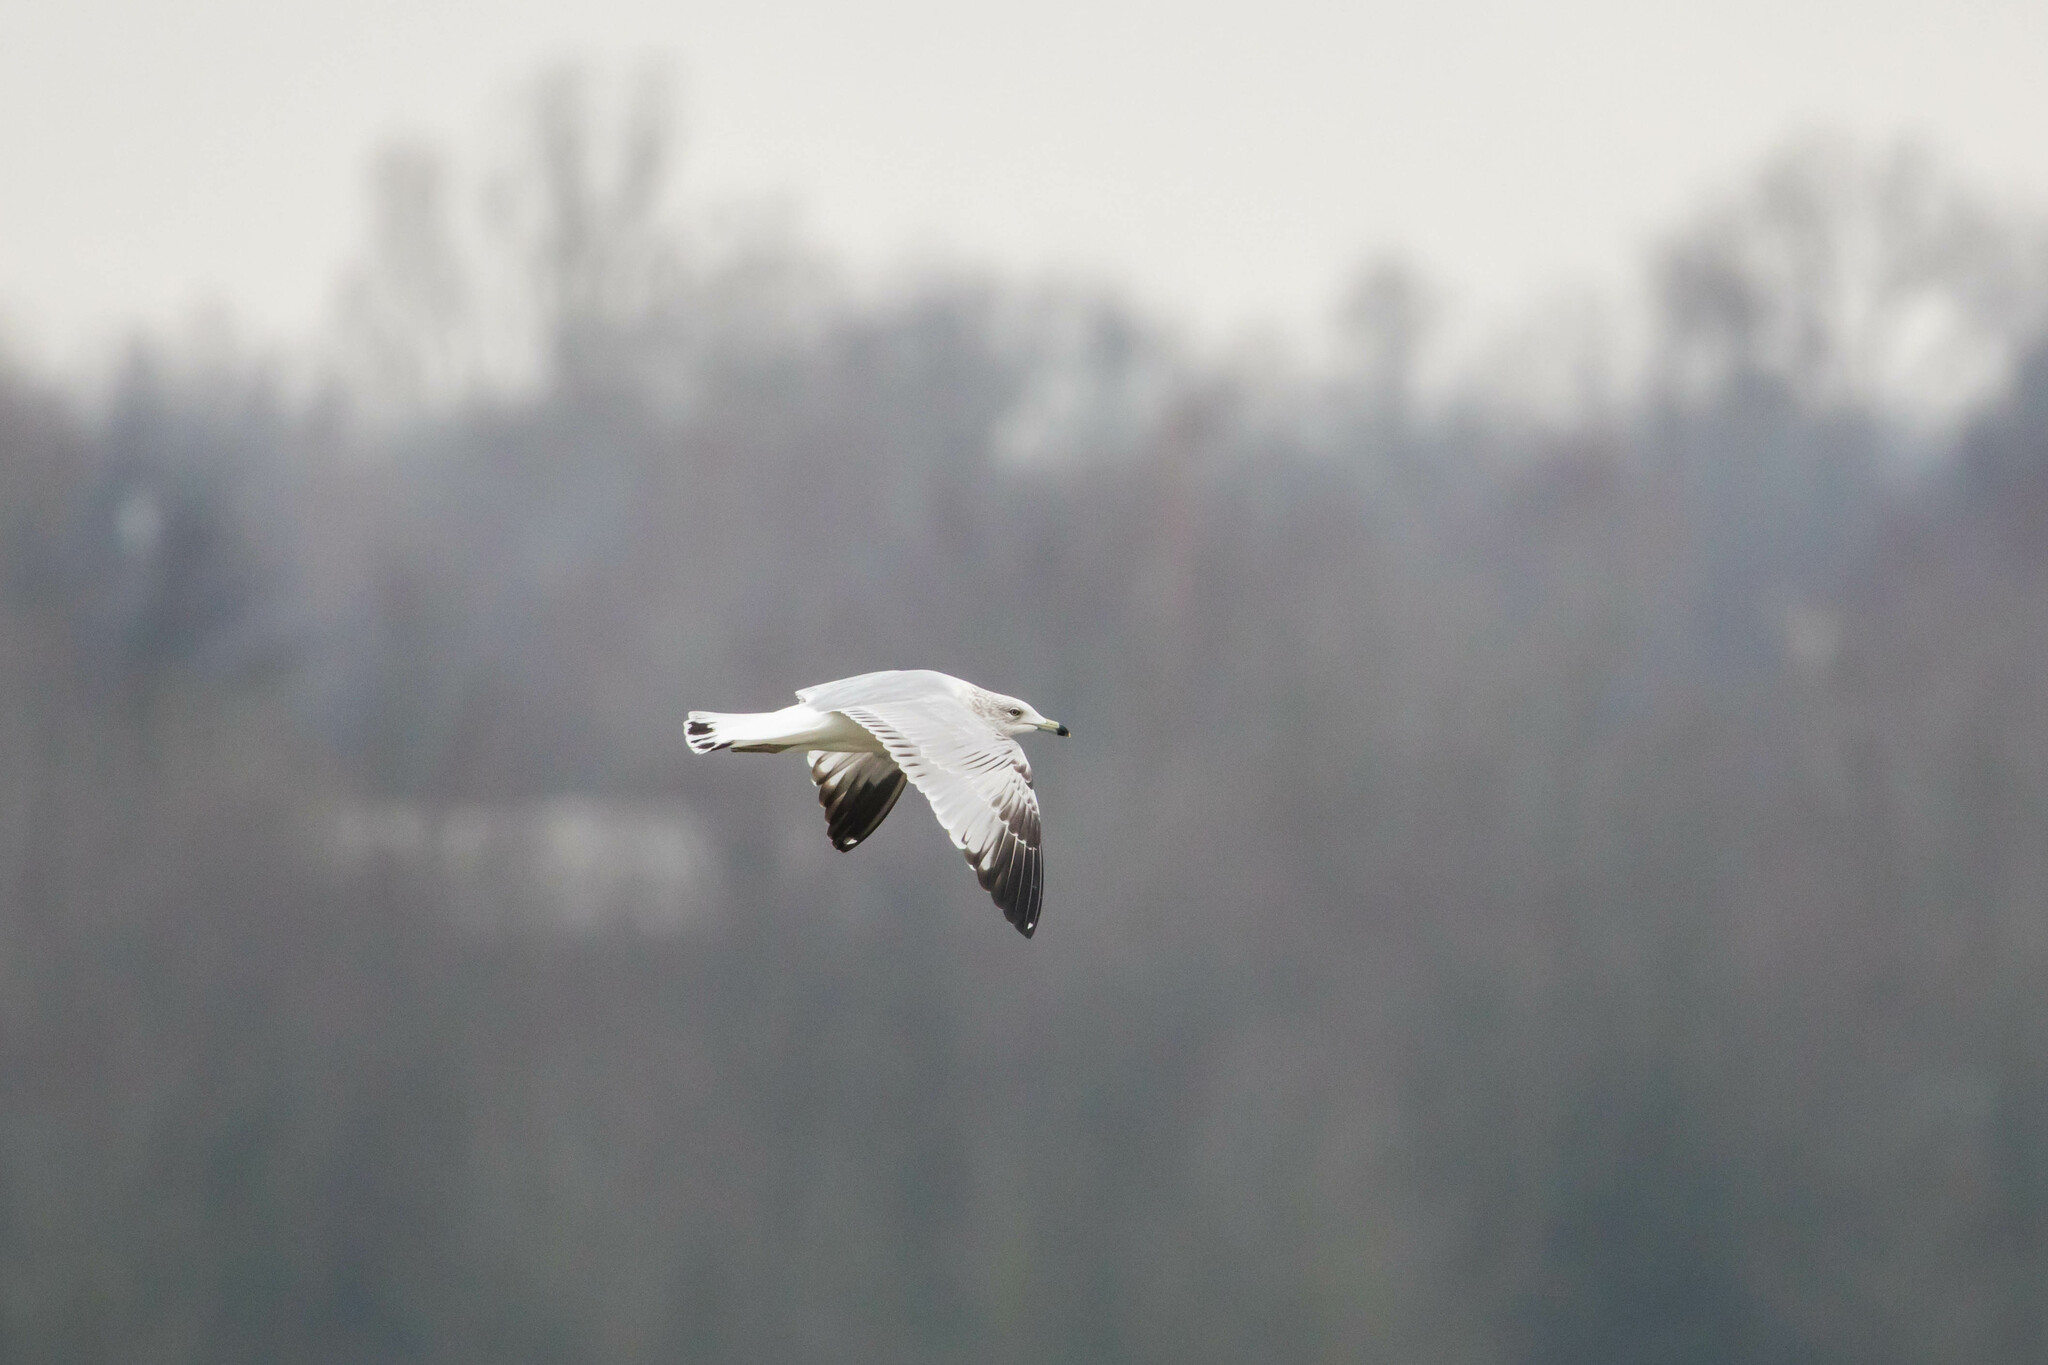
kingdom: Animalia
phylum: Chordata
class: Aves
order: Charadriiformes
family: Laridae
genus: Larus
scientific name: Larus delawarensis
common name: Ring-billed gull
